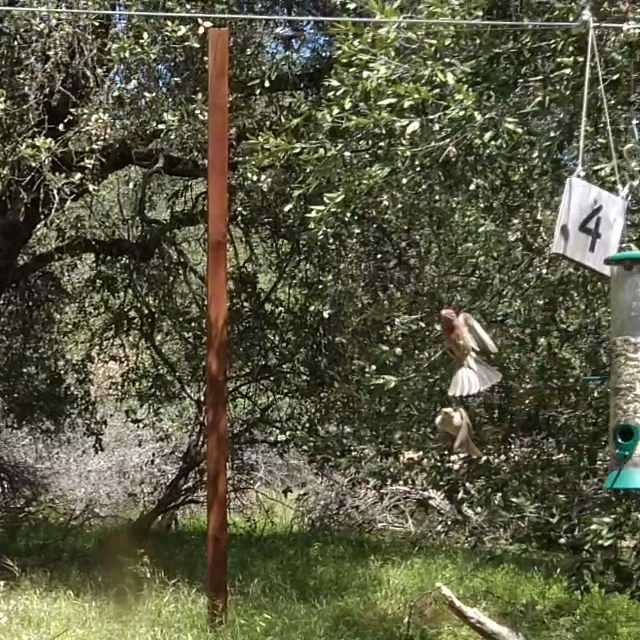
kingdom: Animalia
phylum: Chordata
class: Aves
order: Passeriformes
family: Fringillidae
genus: Haemorhous
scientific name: Haemorhous mexicanus
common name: House finch
